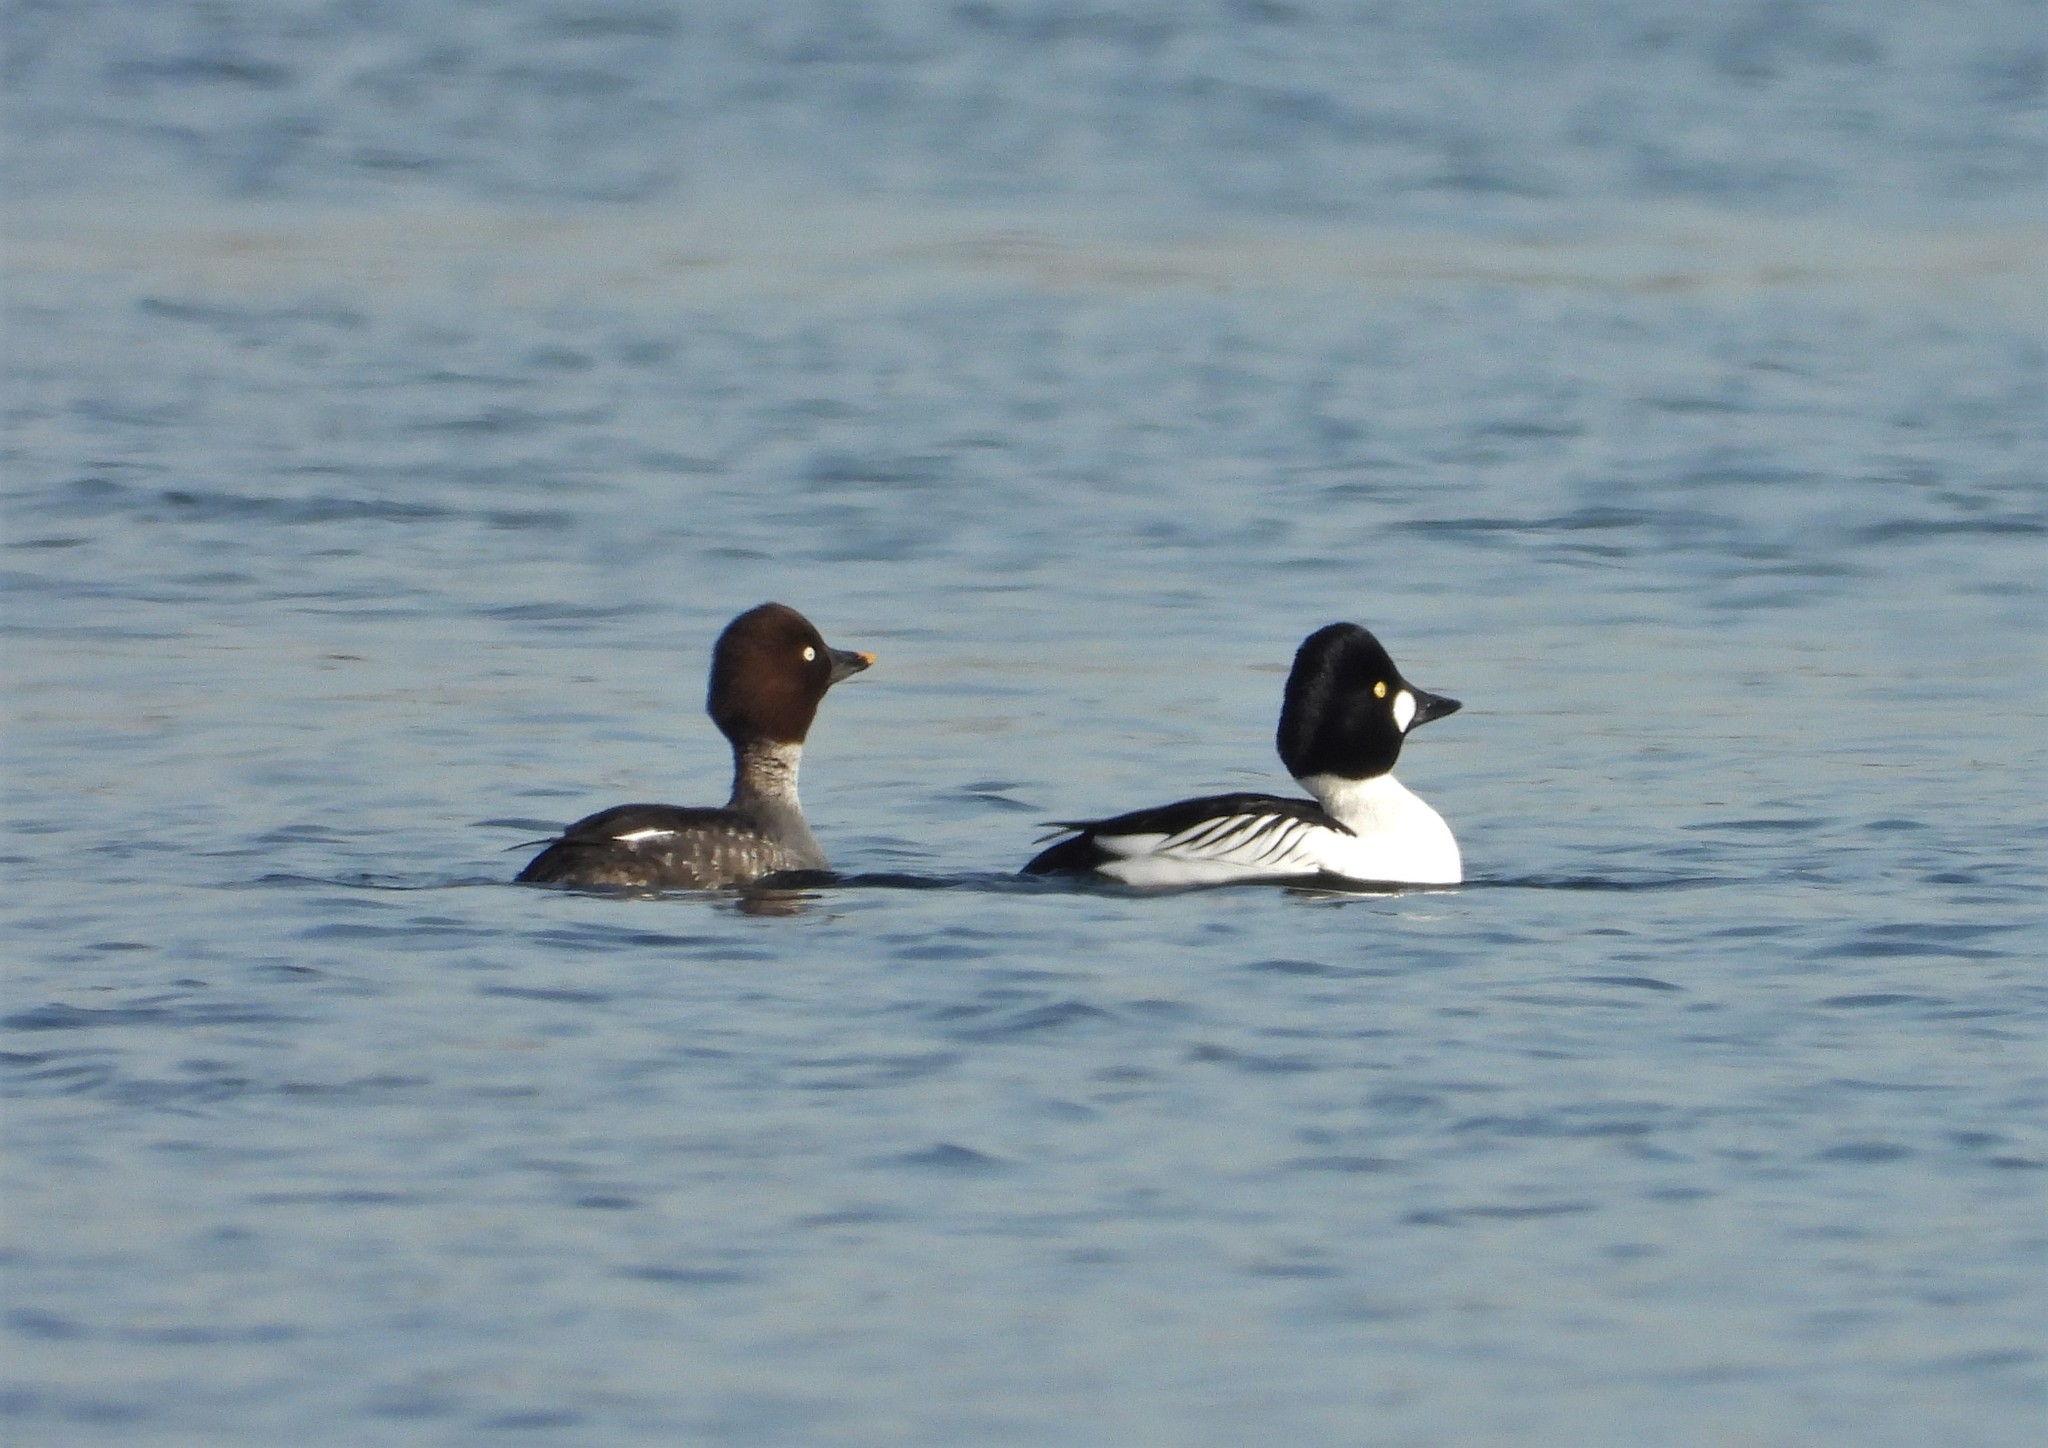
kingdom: Animalia
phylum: Chordata
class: Aves
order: Anseriformes
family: Anatidae
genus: Bucephala
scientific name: Bucephala clangula
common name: Common goldeneye
